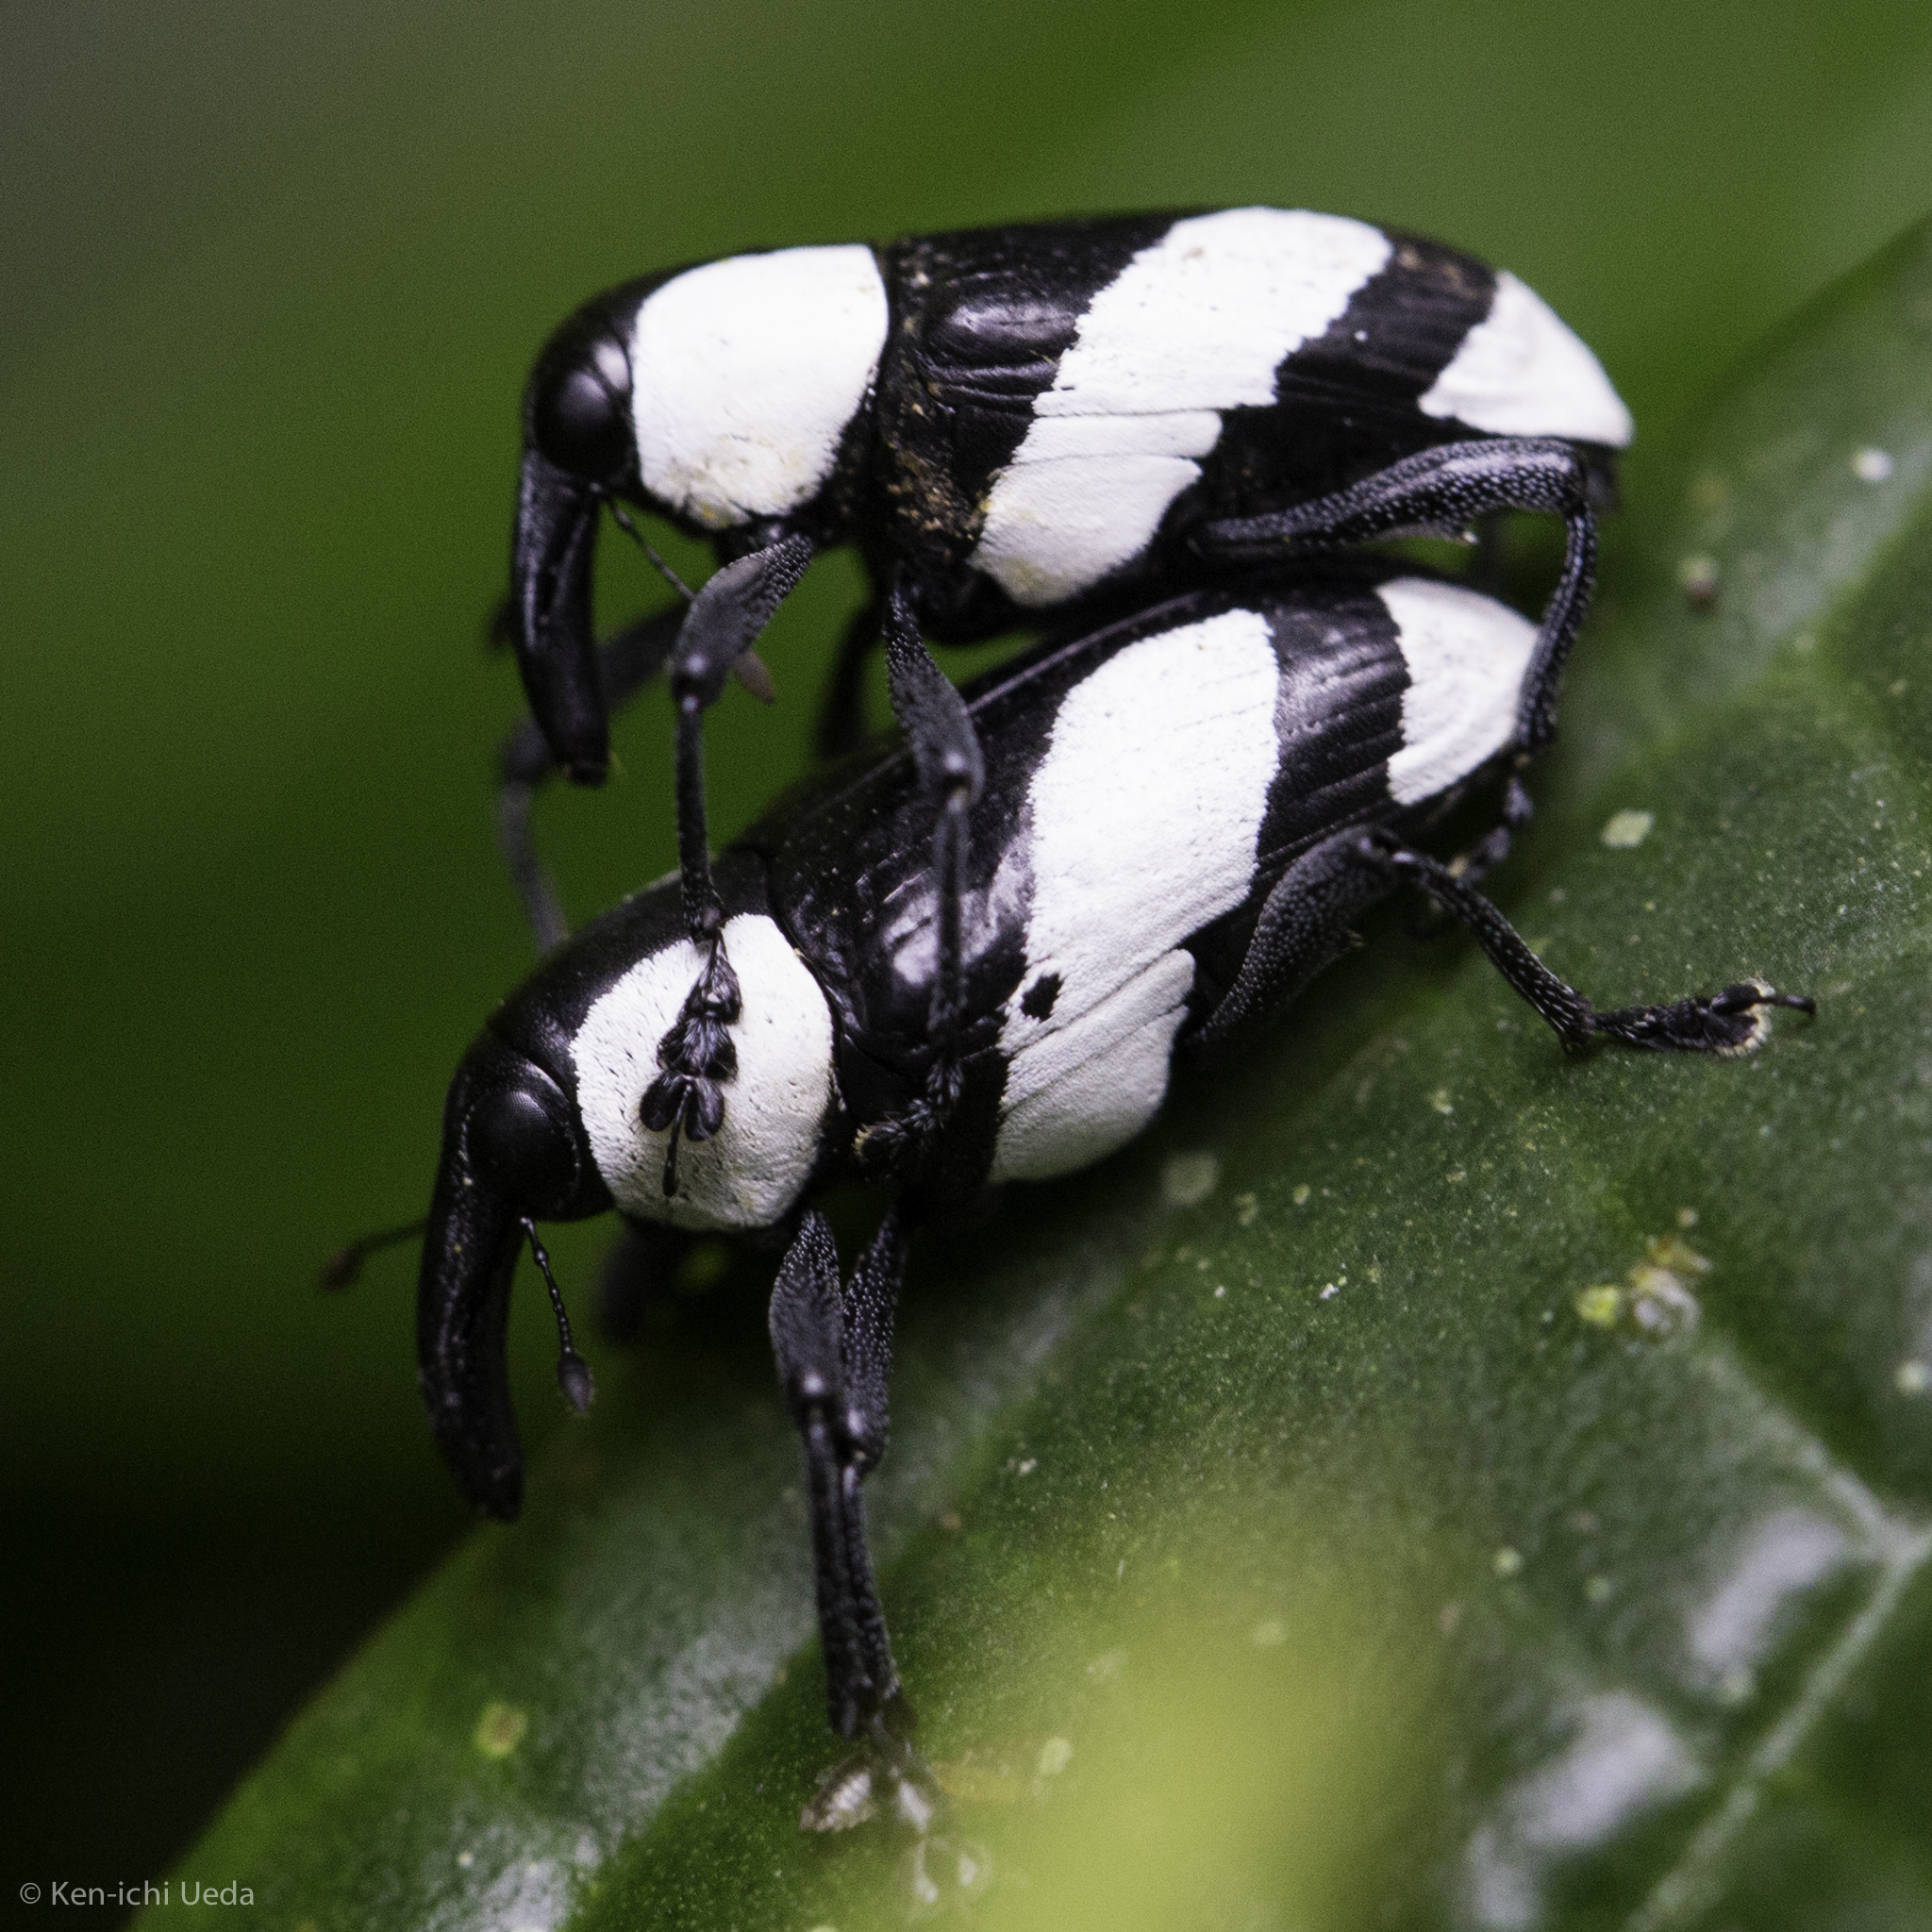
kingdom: Animalia
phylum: Arthropoda
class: Insecta
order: Coleoptera
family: Curculionidae
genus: Peridinetus
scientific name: Peridinetus cretaceus
